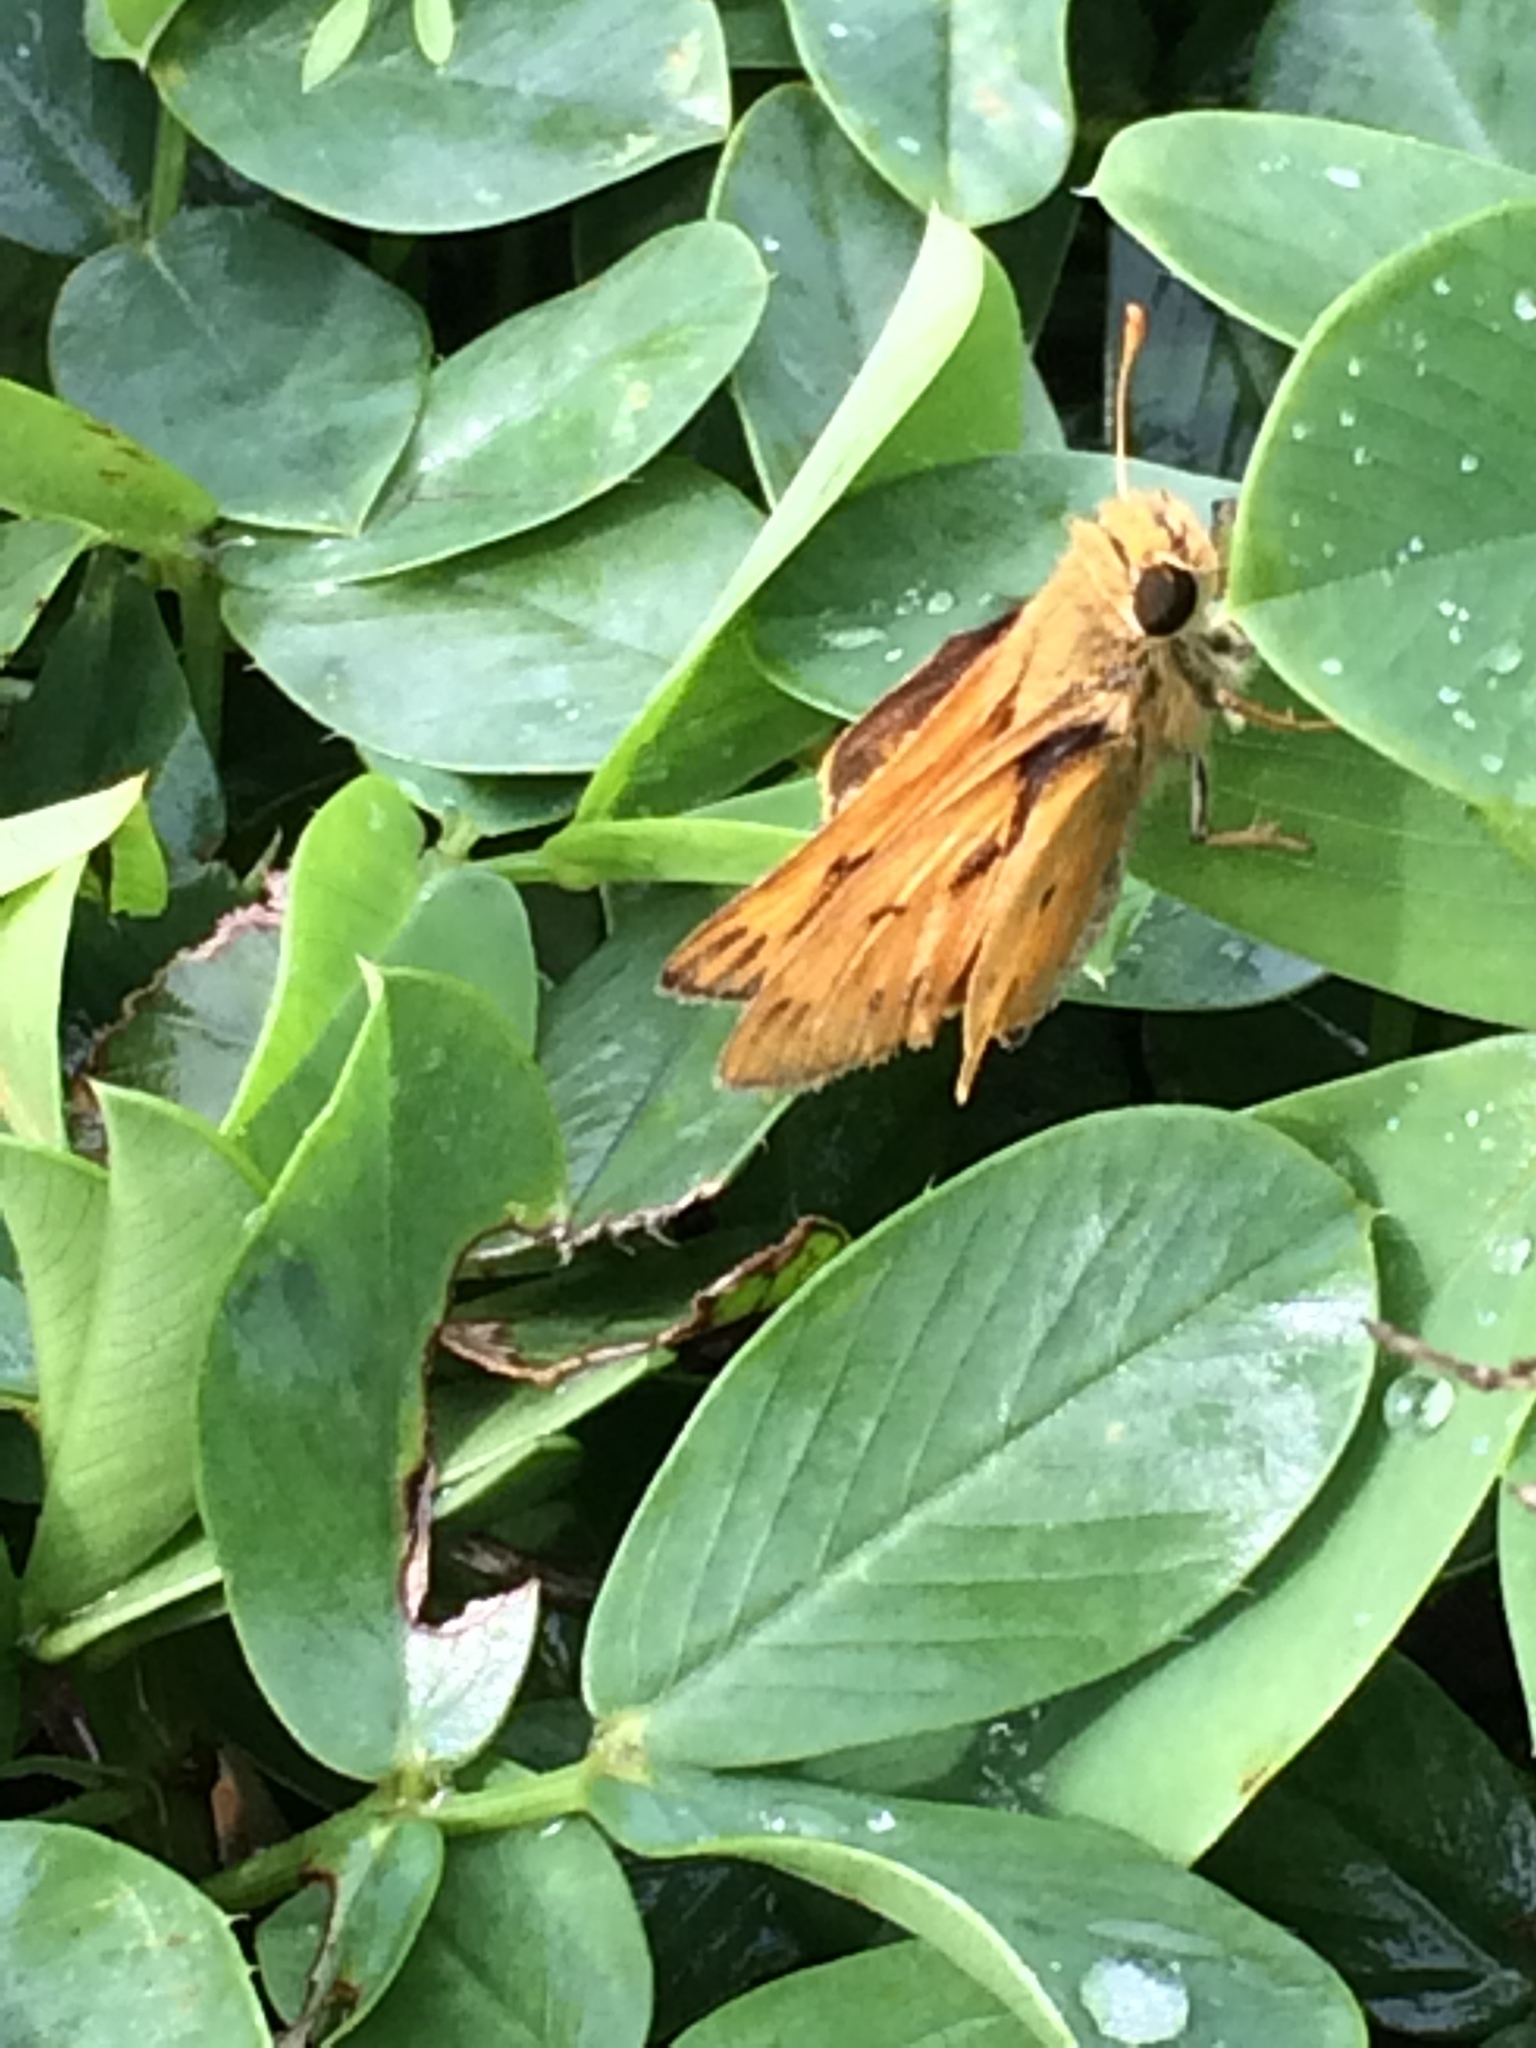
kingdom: Animalia
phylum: Arthropoda
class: Insecta
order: Lepidoptera
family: Hesperiidae
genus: Hylephila
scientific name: Hylephila phyleus
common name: Fiery skipper
